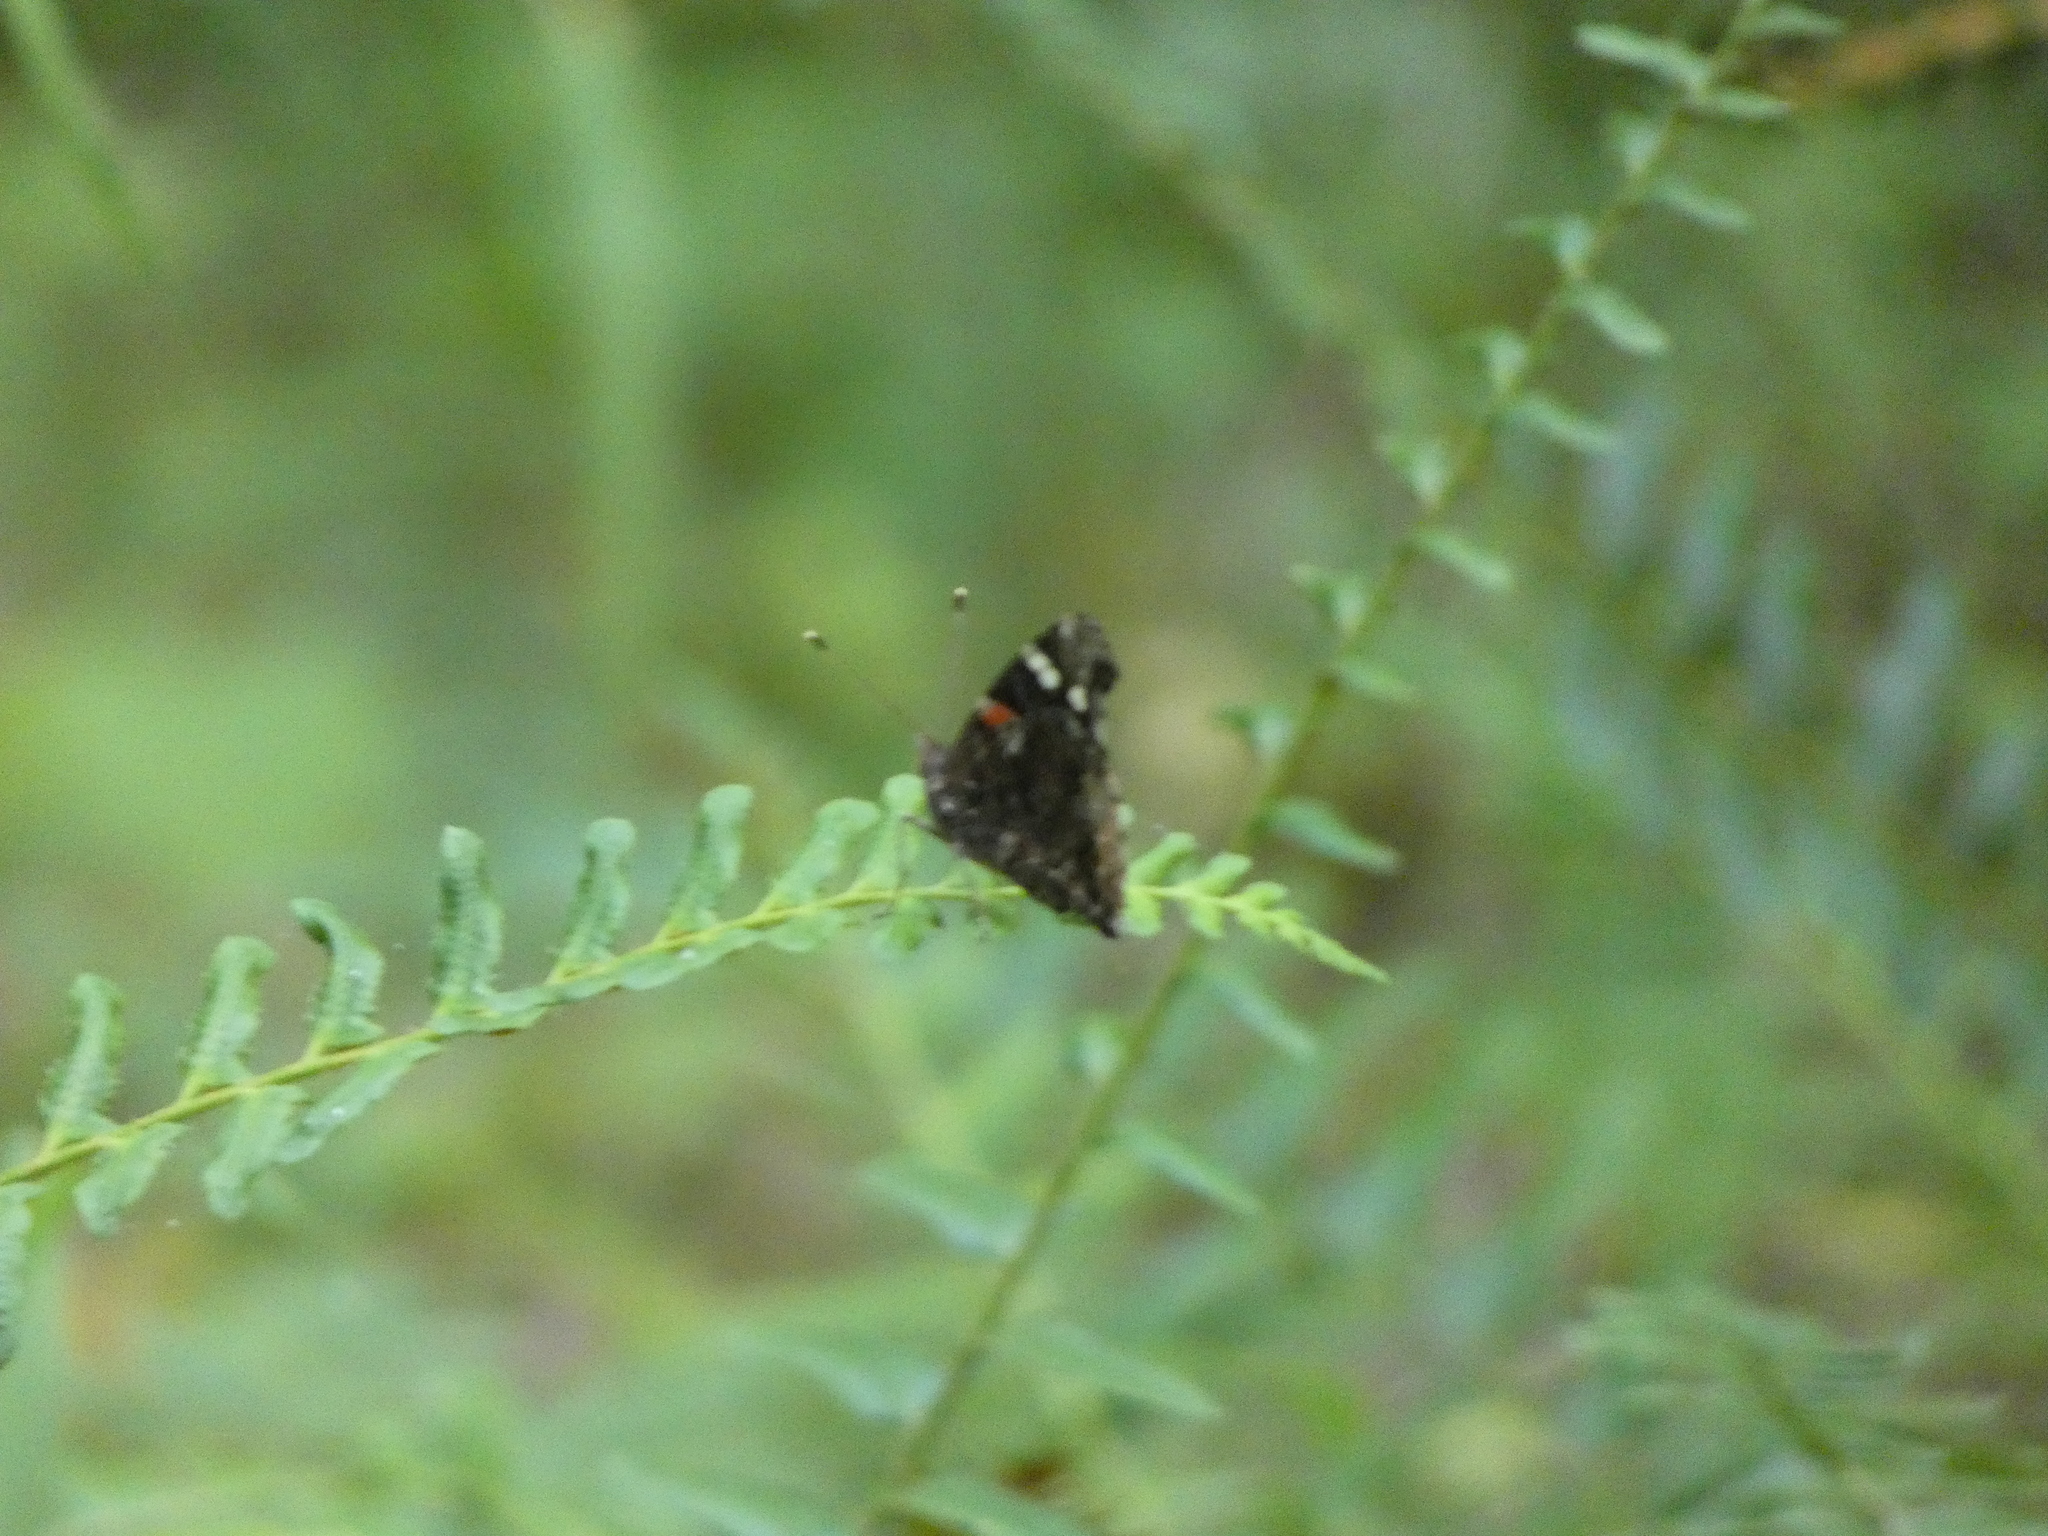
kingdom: Animalia
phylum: Arthropoda
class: Insecta
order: Lepidoptera
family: Nymphalidae
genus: Vanessa
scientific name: Vanessa atalanta
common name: Red admiral
